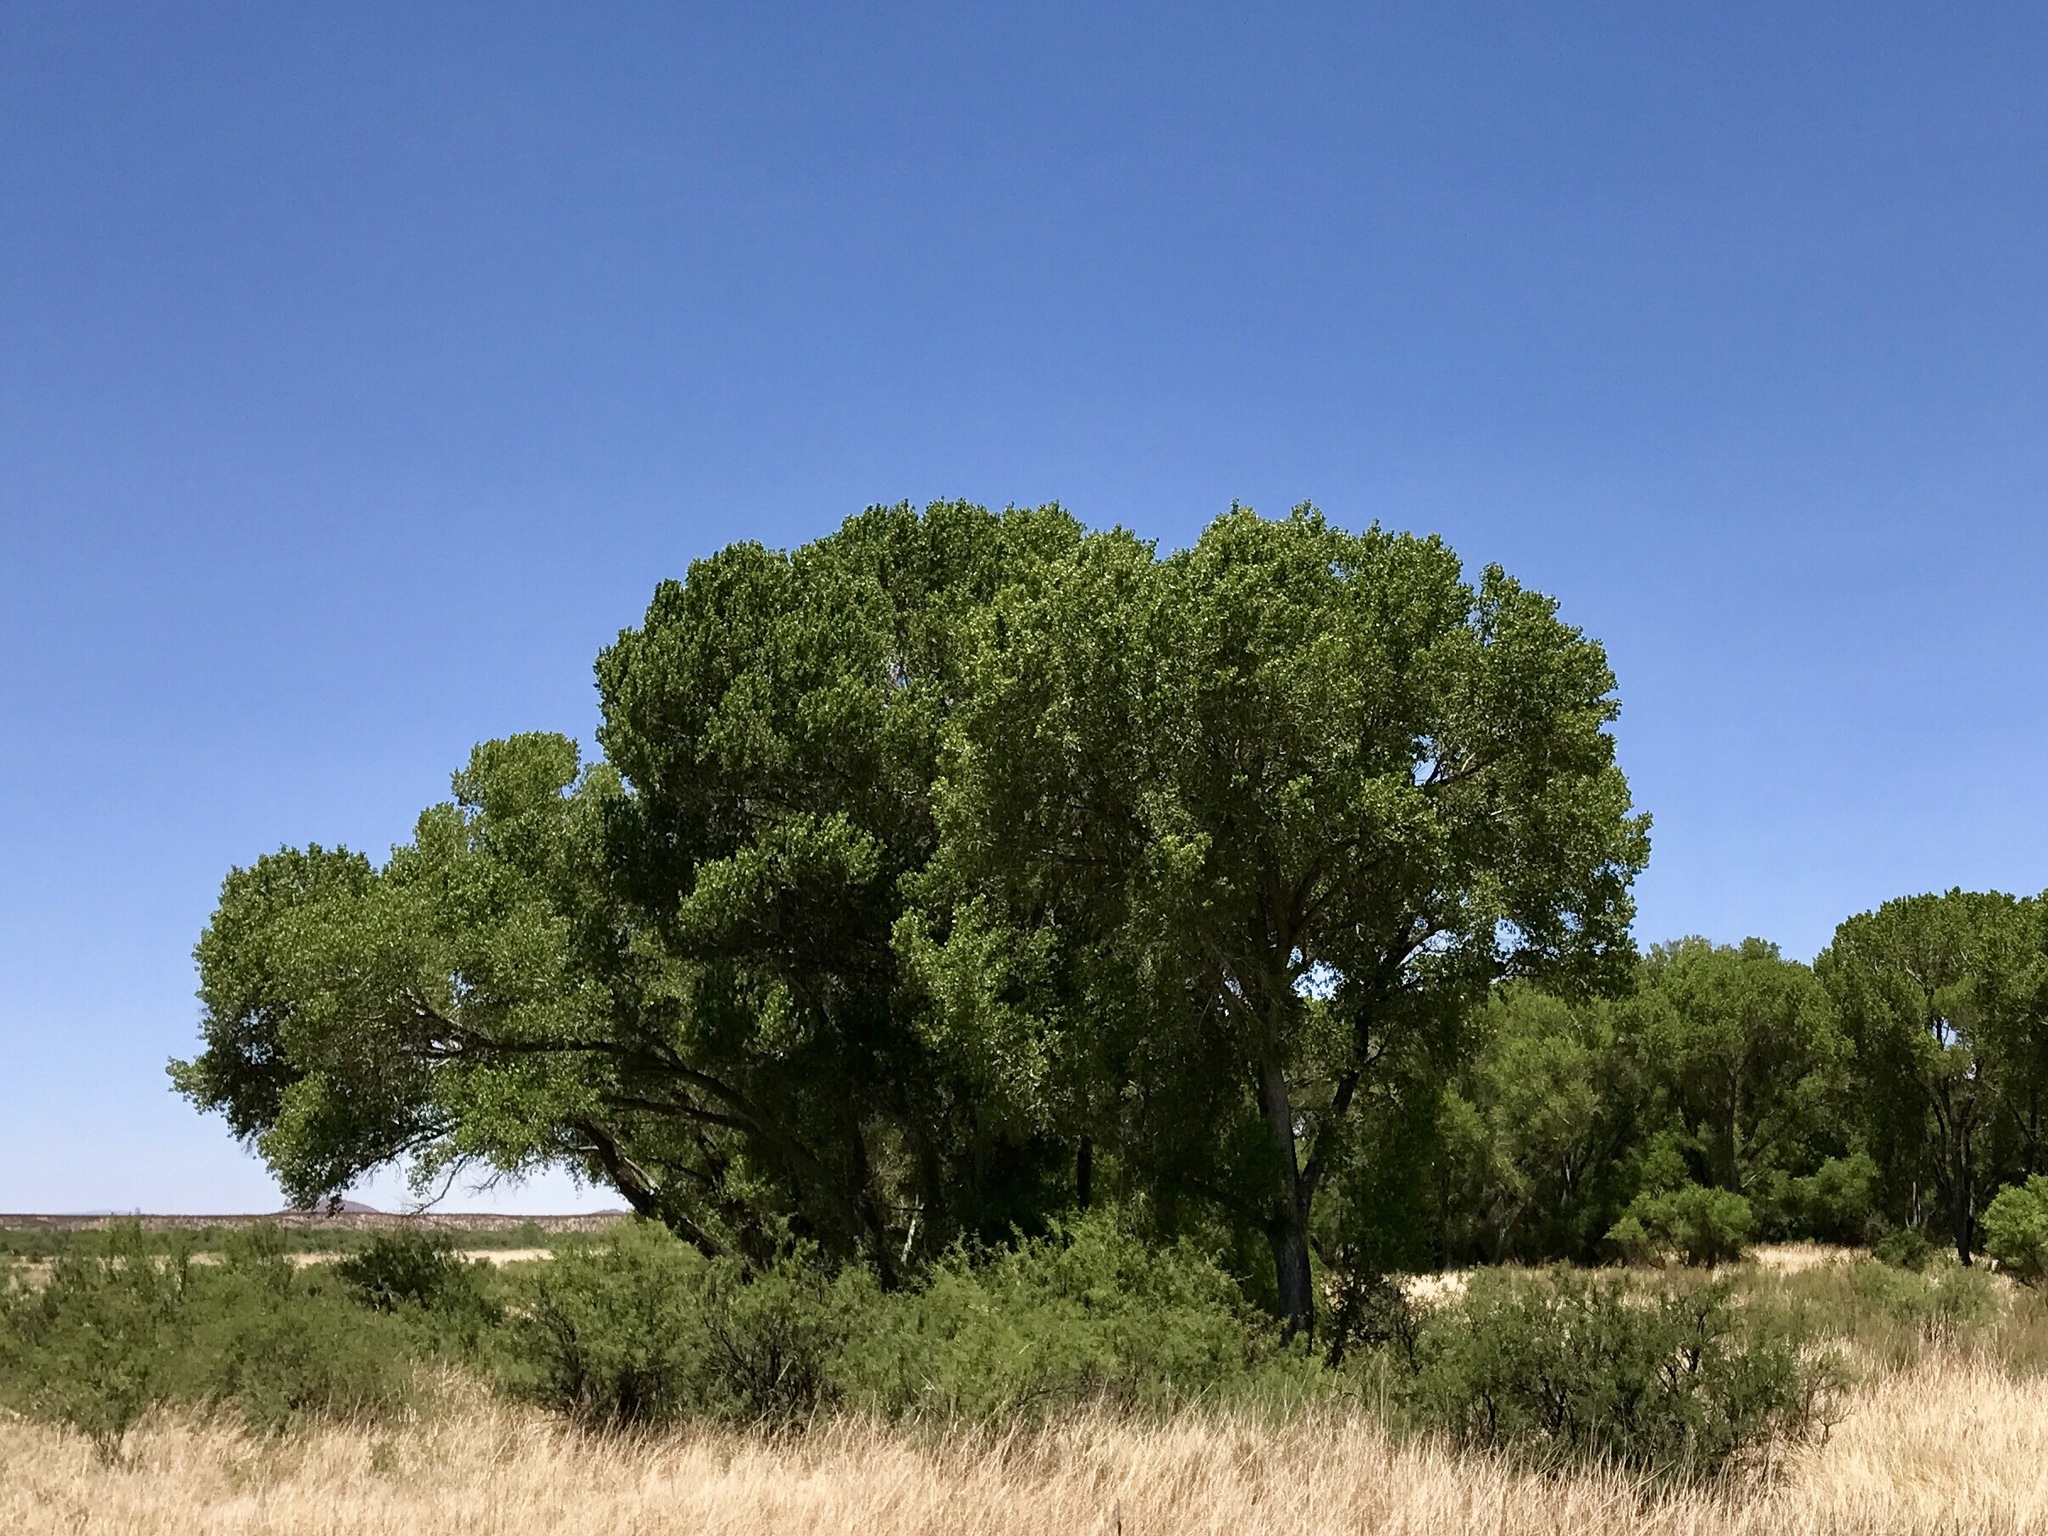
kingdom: Plantae
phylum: Tracheophyta
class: Magnoliopsida
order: Malpighiales
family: Salicaceae
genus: Populus
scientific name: Populus fremontii
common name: Fremont's cottonwood
